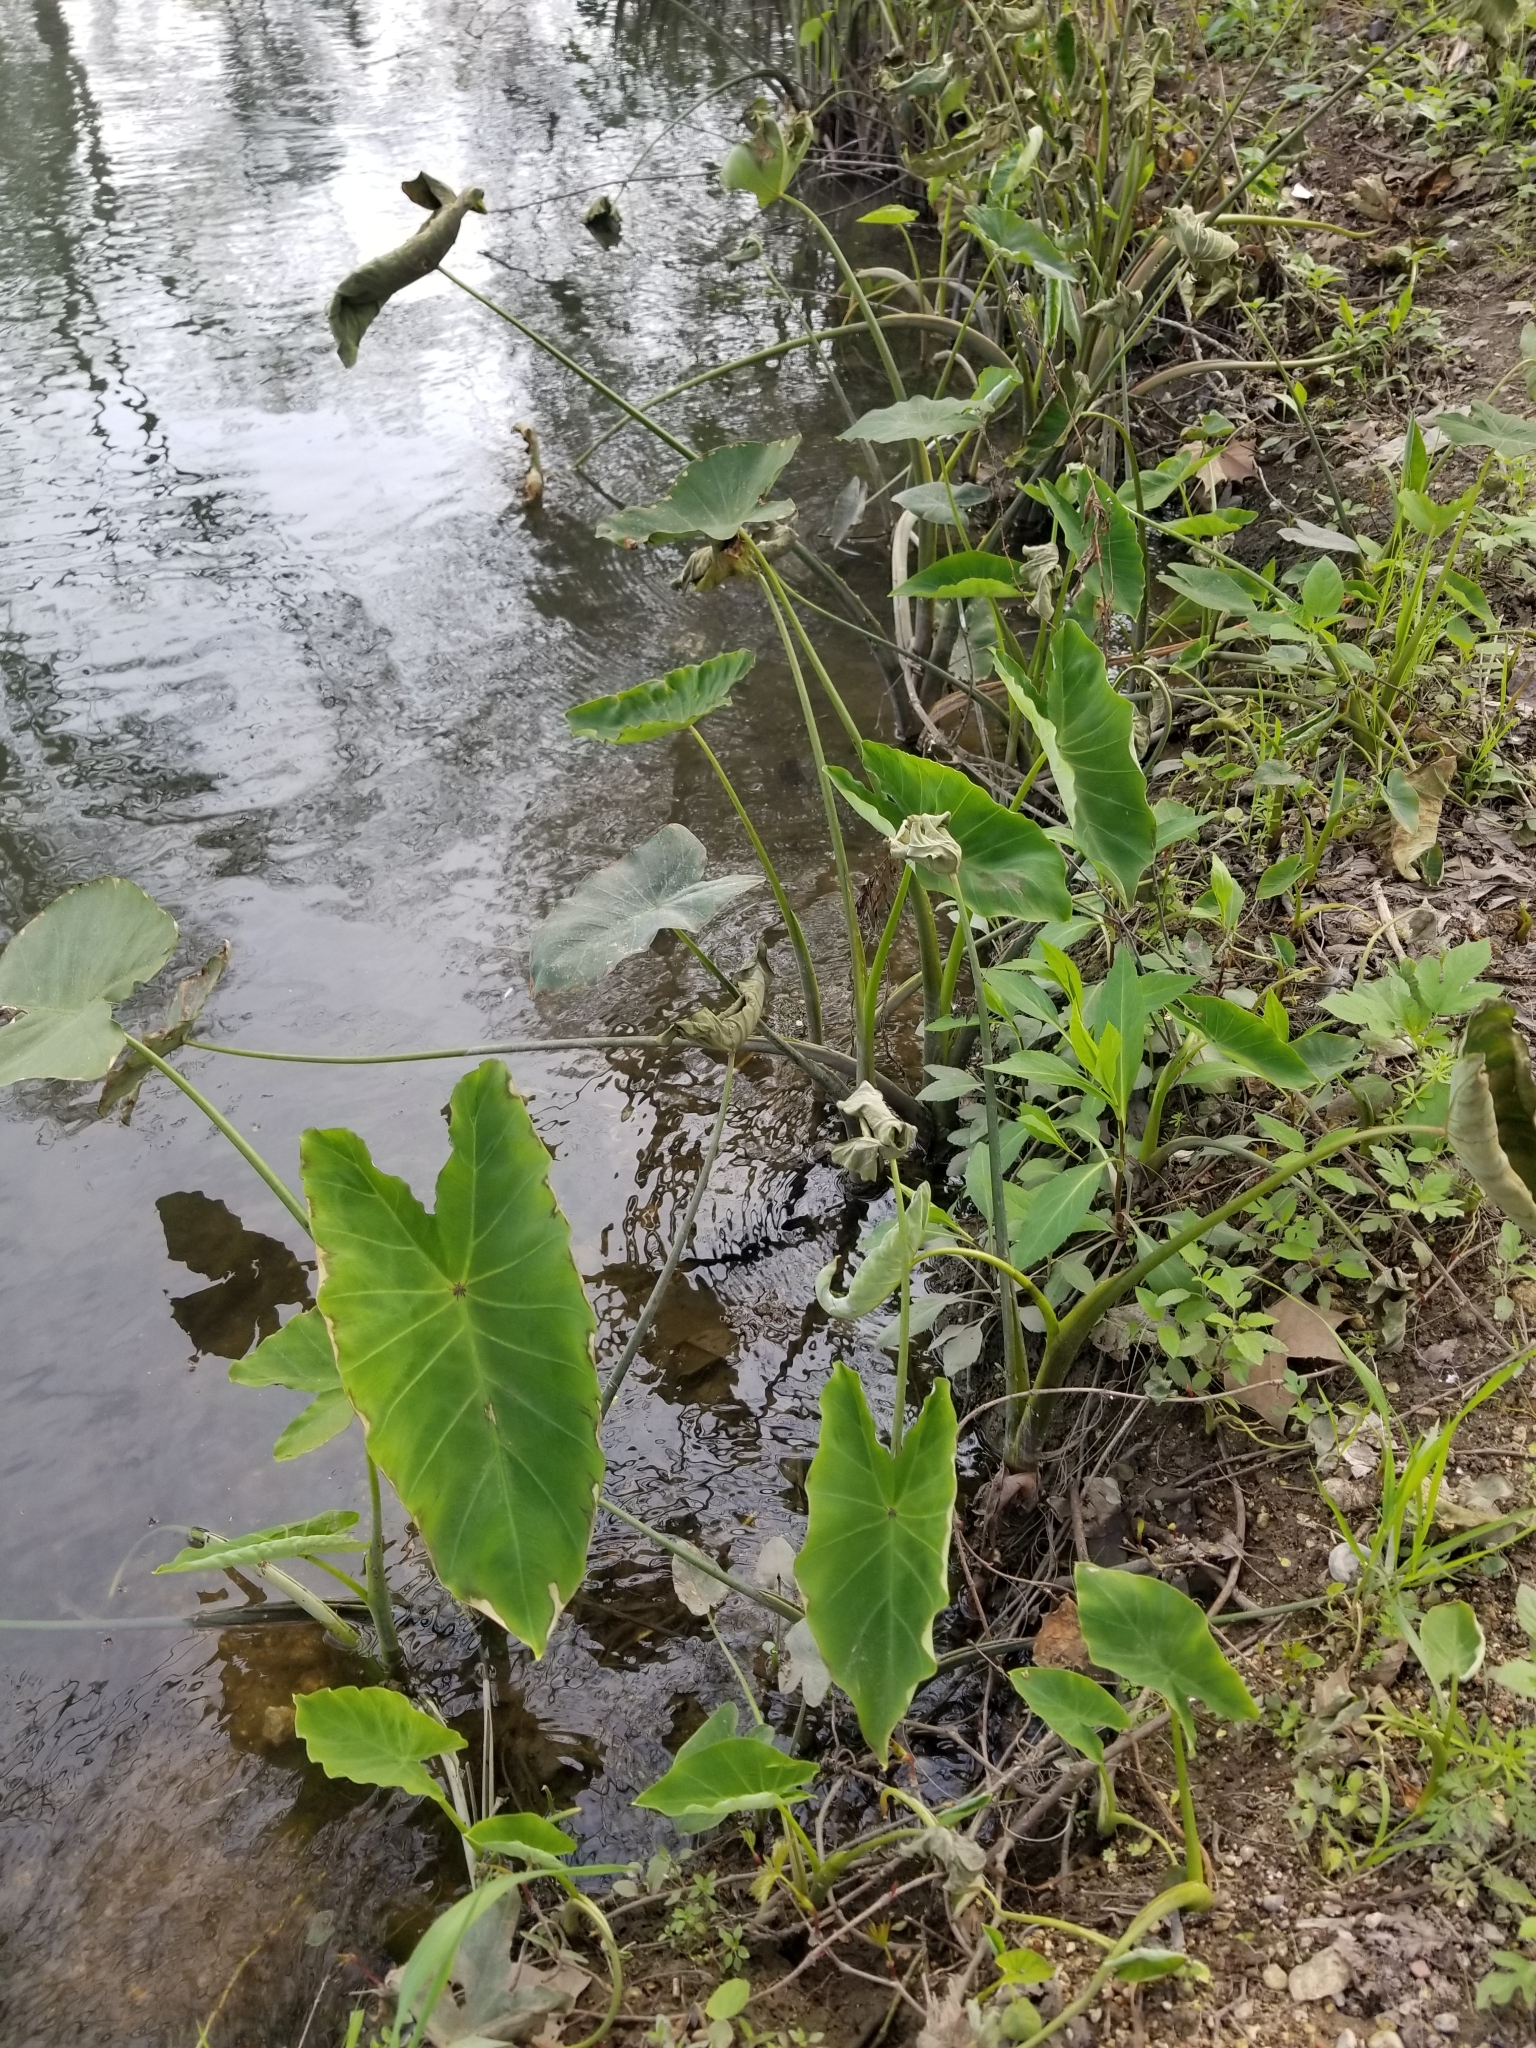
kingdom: Plantae
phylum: Tracheophyta
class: Liliopsida
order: Alismatales
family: Araceae
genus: Colocasia
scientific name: Colocasia esculenta
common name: Taro
